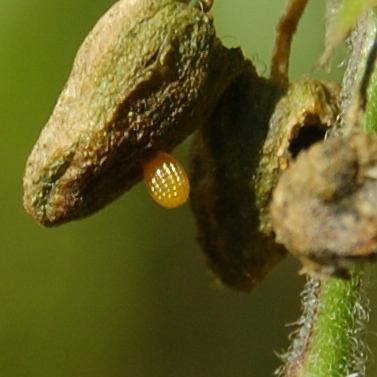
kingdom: Animalia
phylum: Arthropoda
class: Insecta
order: Lepidoptera
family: Nymphalidae
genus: Dryas
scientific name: Dryas iulia
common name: Flambeau
